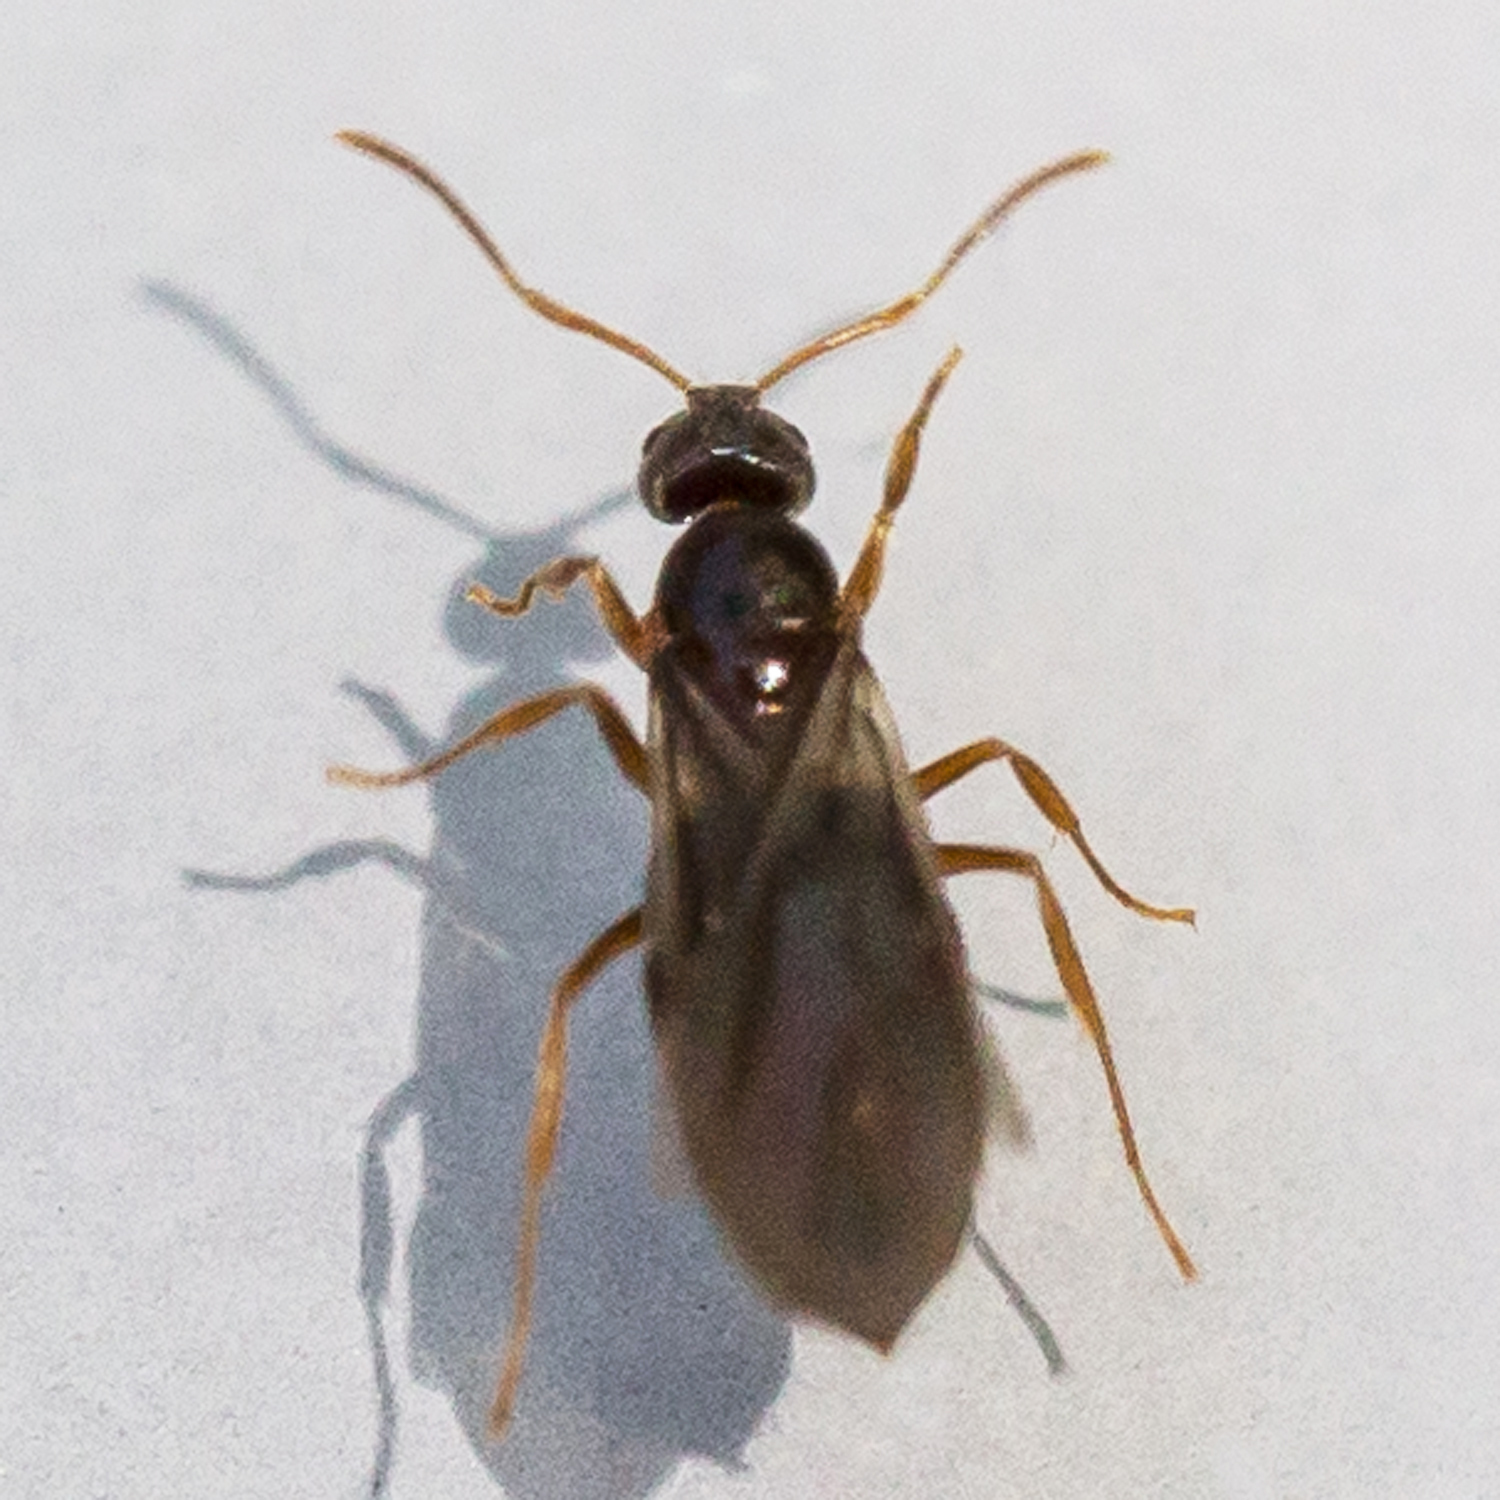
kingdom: Animalia
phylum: Arthropoda
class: Insecta
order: Hymenoptera
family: Formicidae
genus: Paratrechina
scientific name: Paratrechina flavipes
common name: Eastern asian formicine ant
